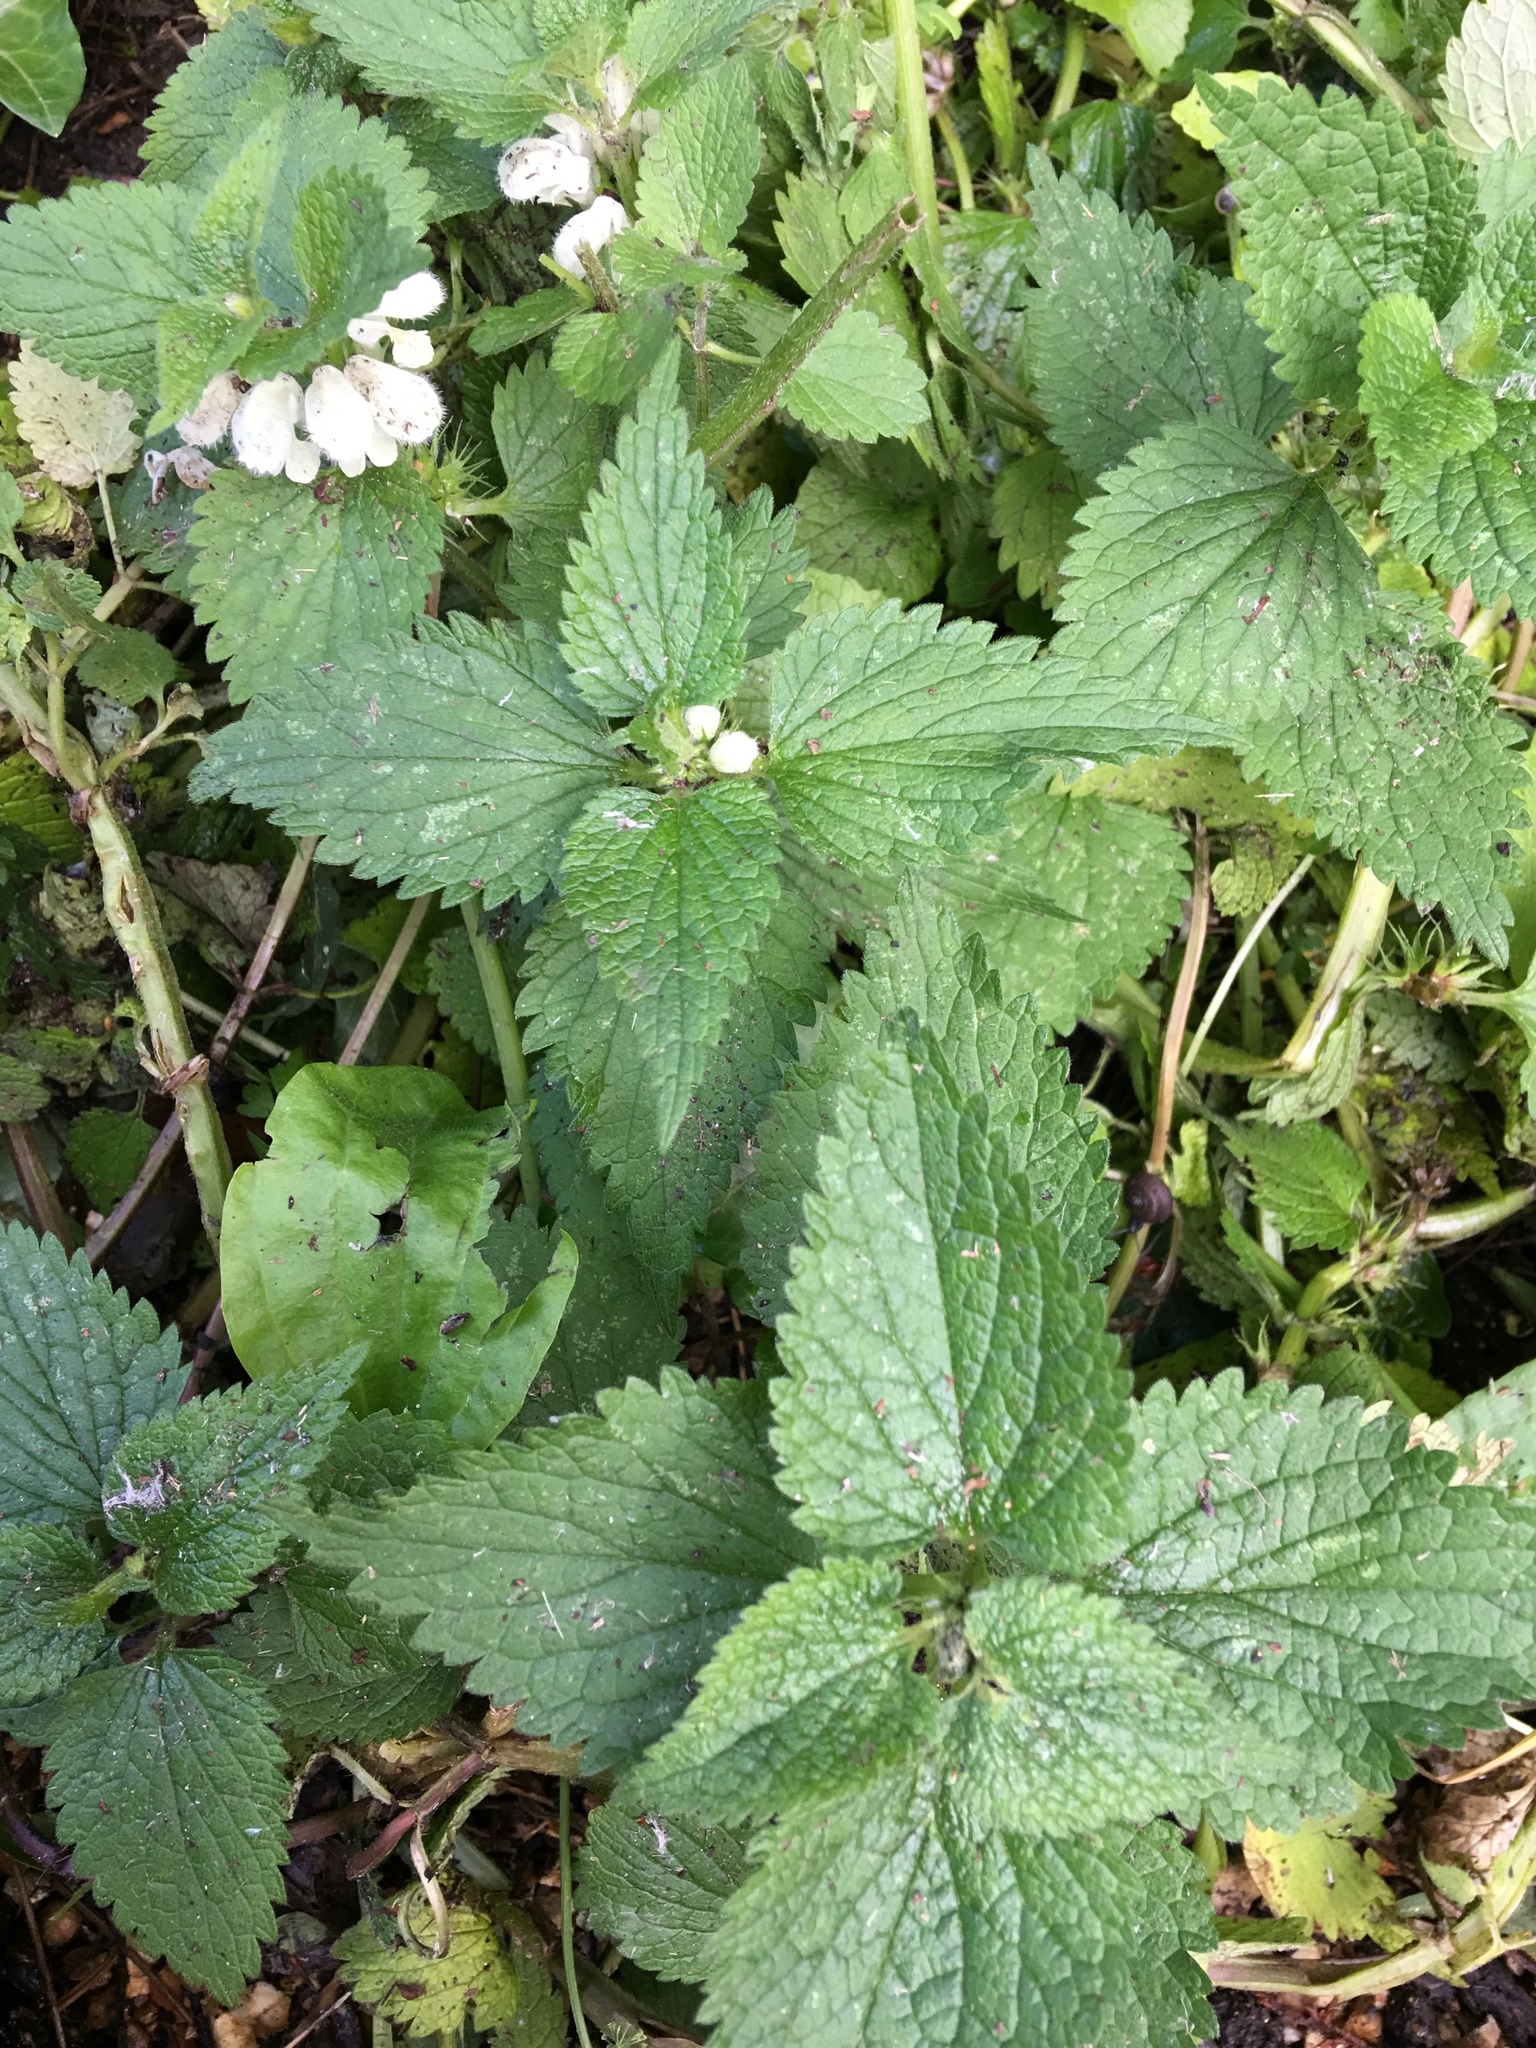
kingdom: Plantae
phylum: Tracheophyta
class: Magnoliopsida
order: Lamiales
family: Lamiaceae
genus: Lamium
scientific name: Lamium album
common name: White dead-nettle
